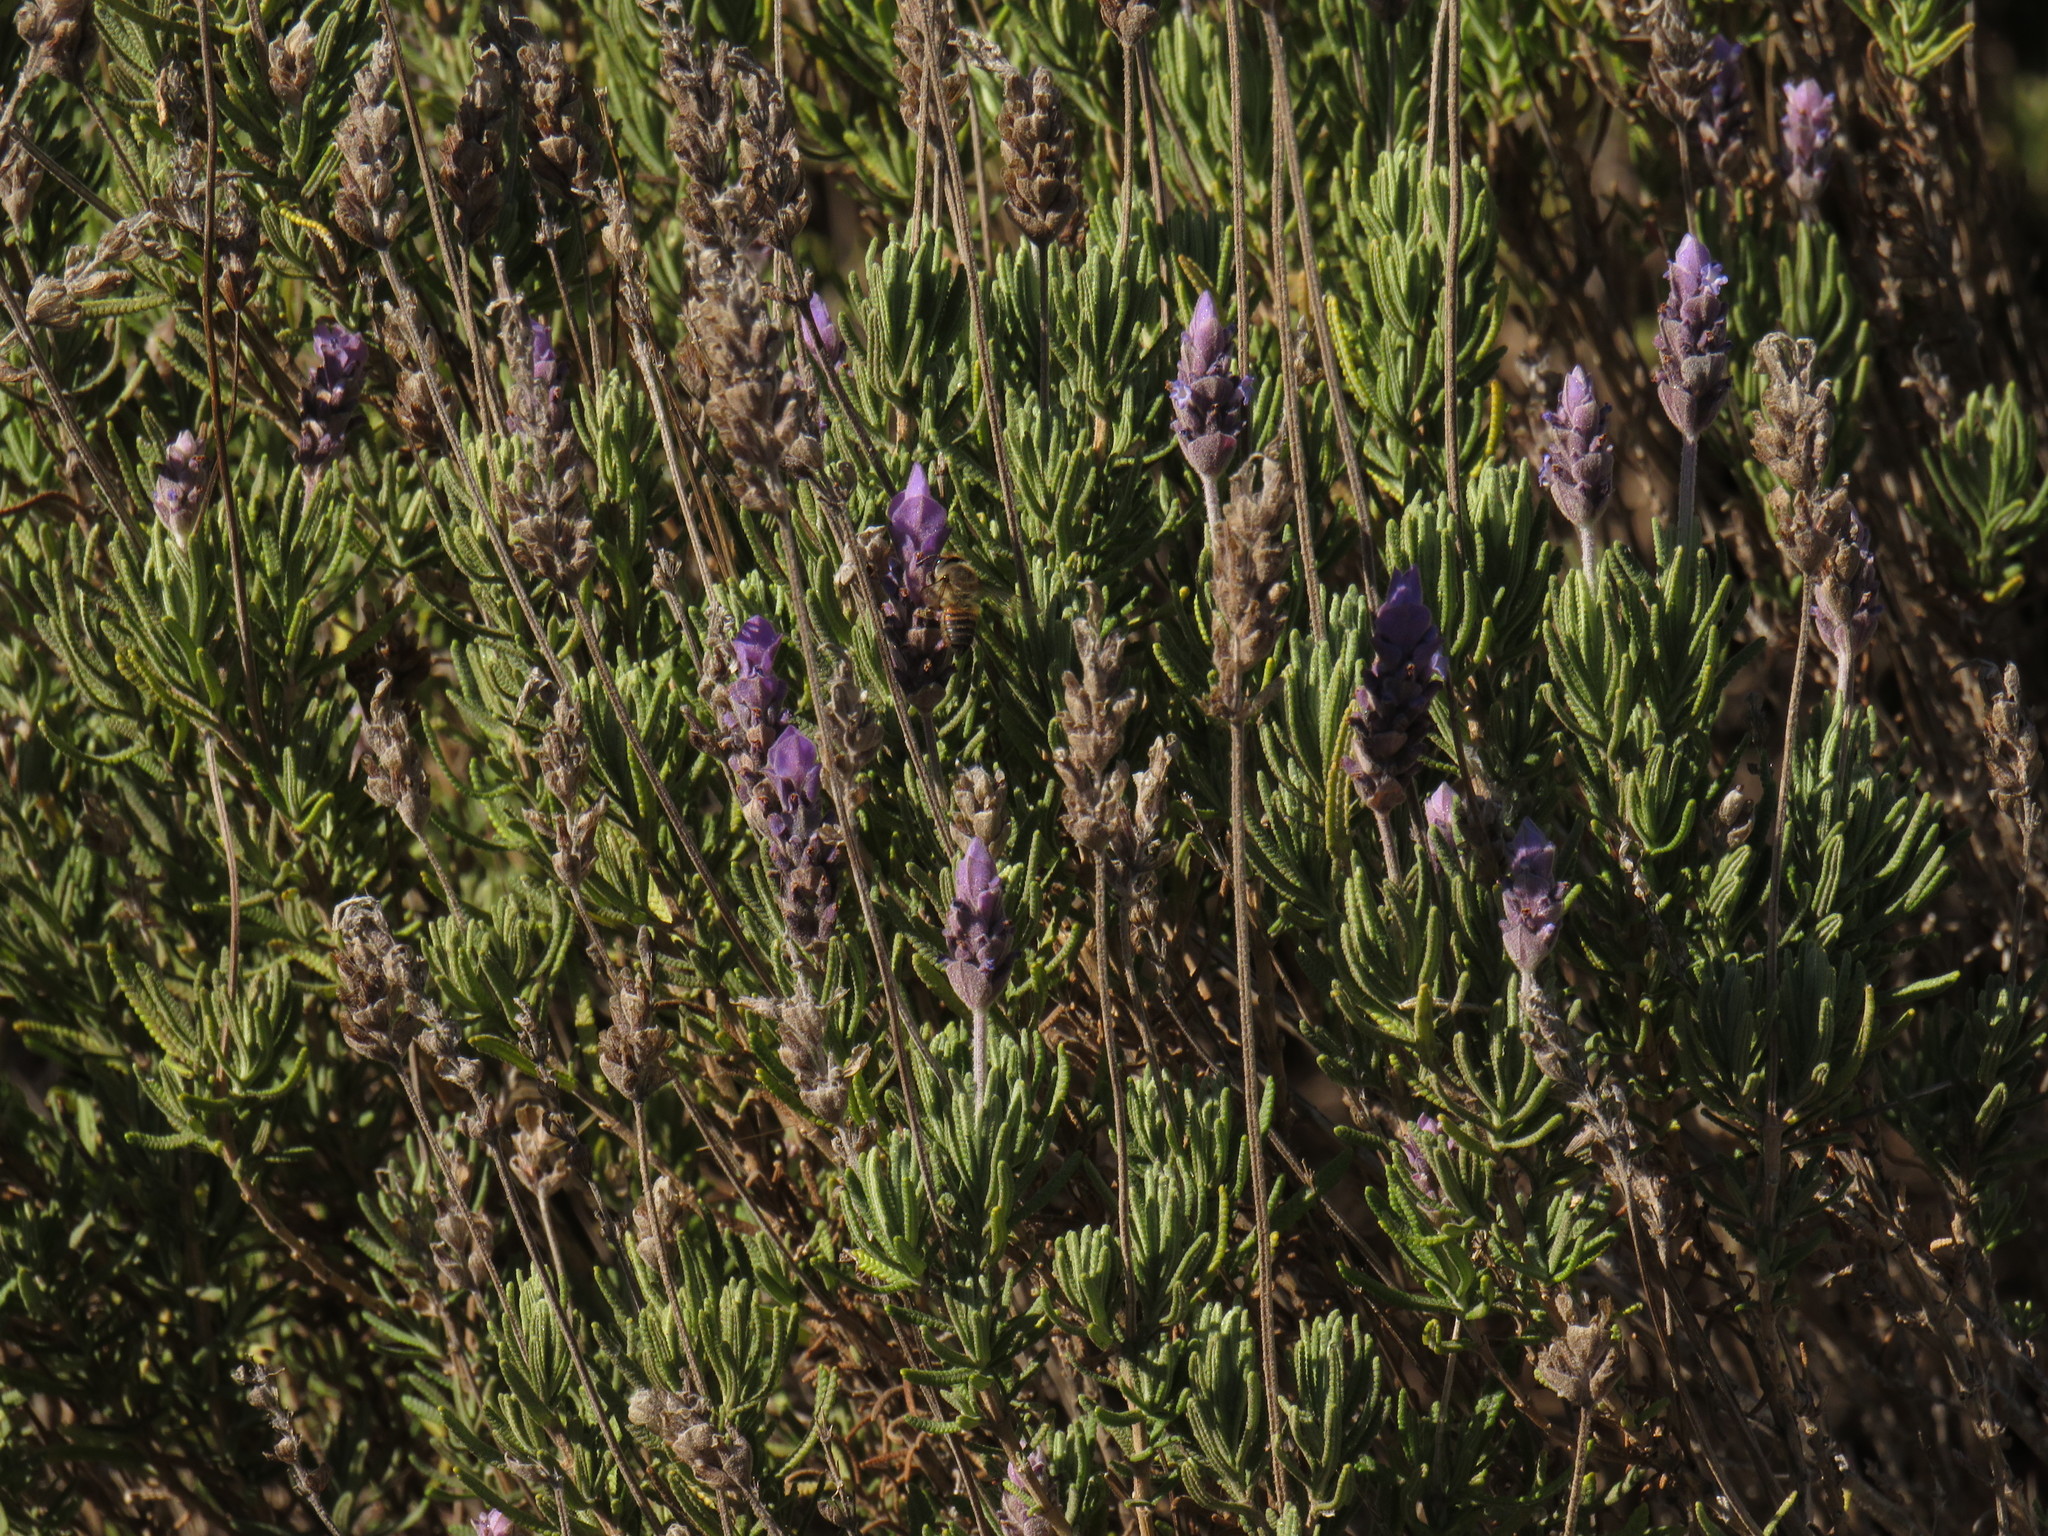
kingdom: Animalia
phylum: Arthropoda
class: Insecta
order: Hymenoptera
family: Apidae
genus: Apis
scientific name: Apis mellifera
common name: Honey bee
